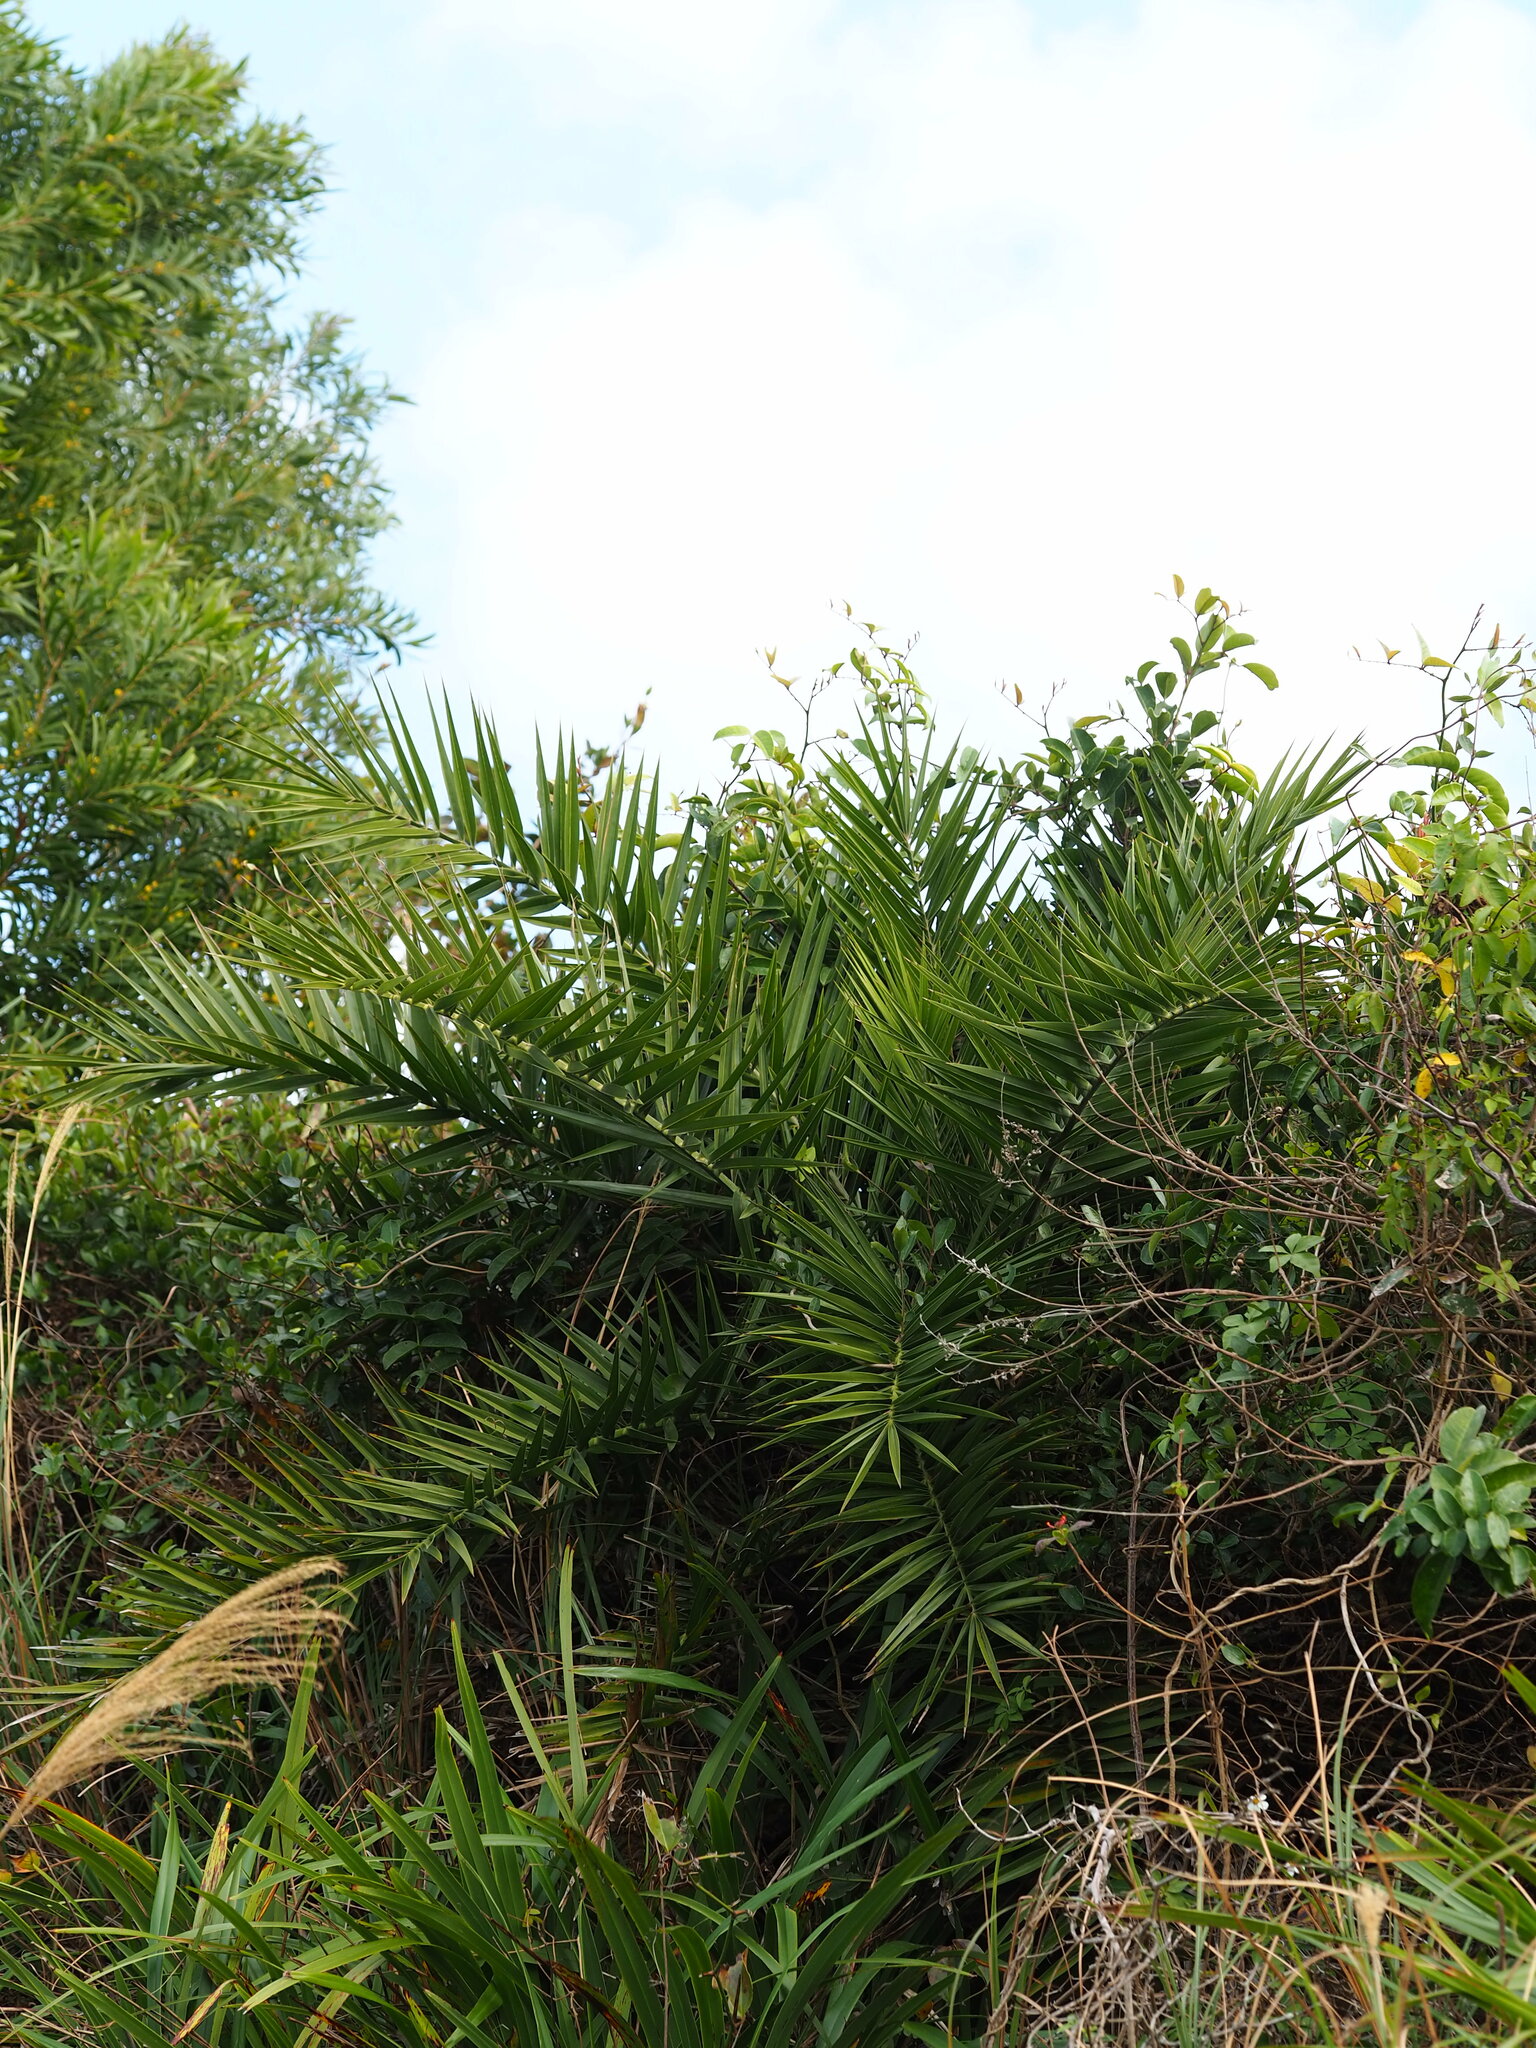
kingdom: Plantae
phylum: Tracheophyta
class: Liliopsida
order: Arecales
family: Arecaceae
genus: Phoenix
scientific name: Phoenix loureiroi
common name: Loureiro's palm
